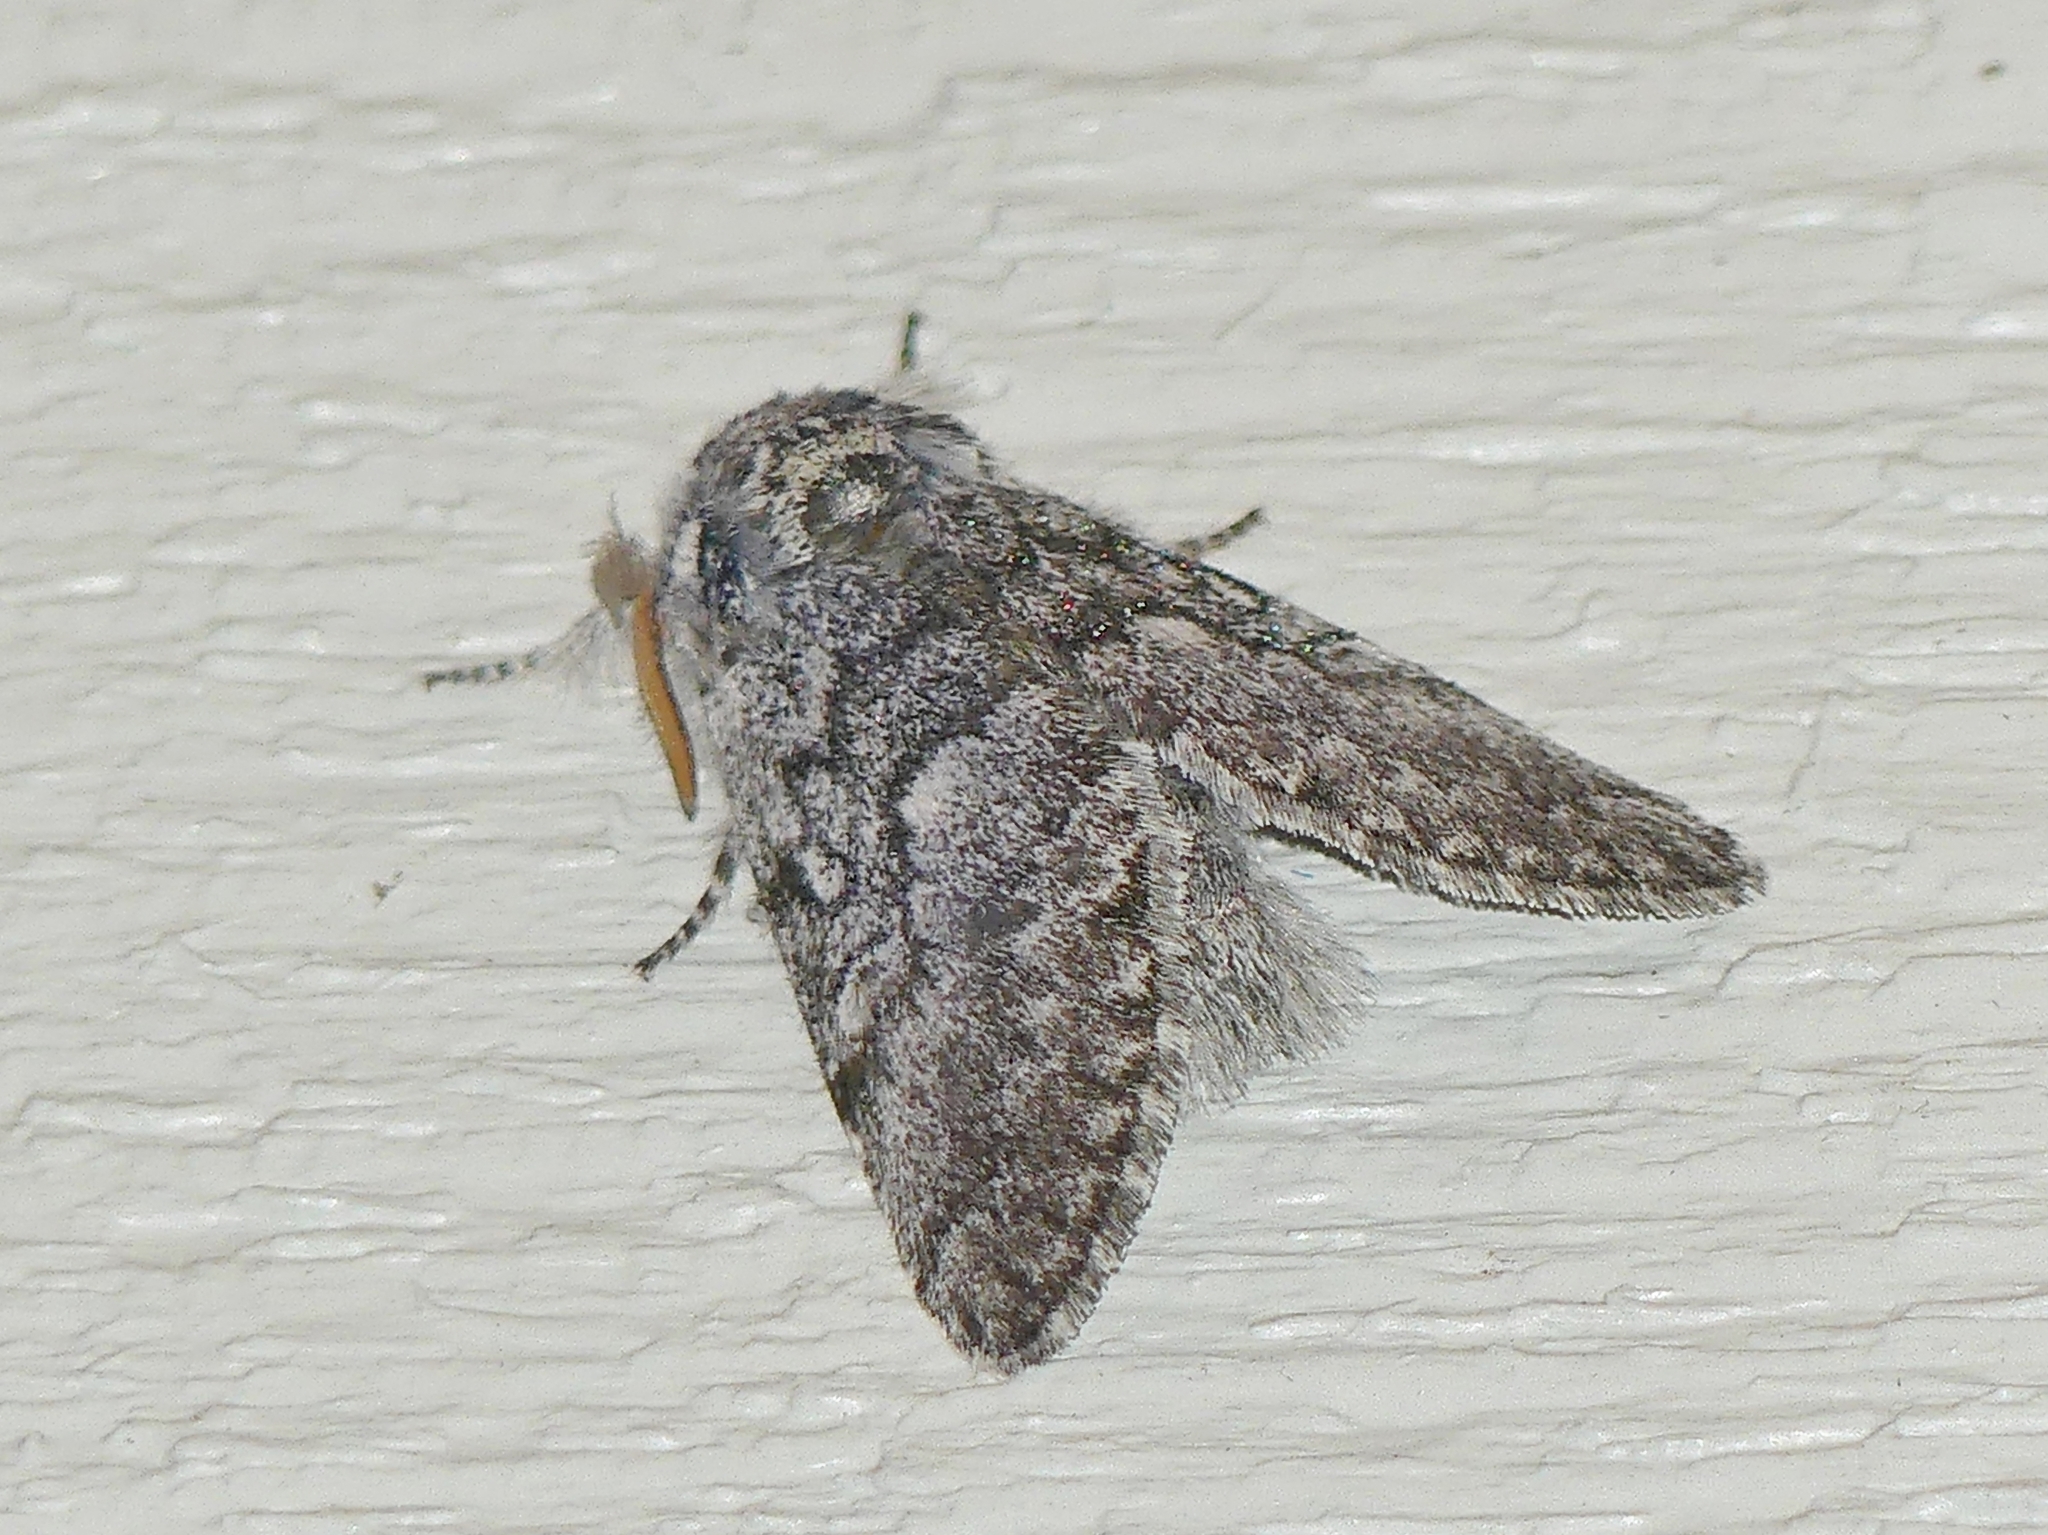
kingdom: Animalia
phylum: Arthropoda
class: Insecta
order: Lepidoptera
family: Noctuidae
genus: Colocasia
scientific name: Colocasia propinquilinea
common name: Close-banded demas
